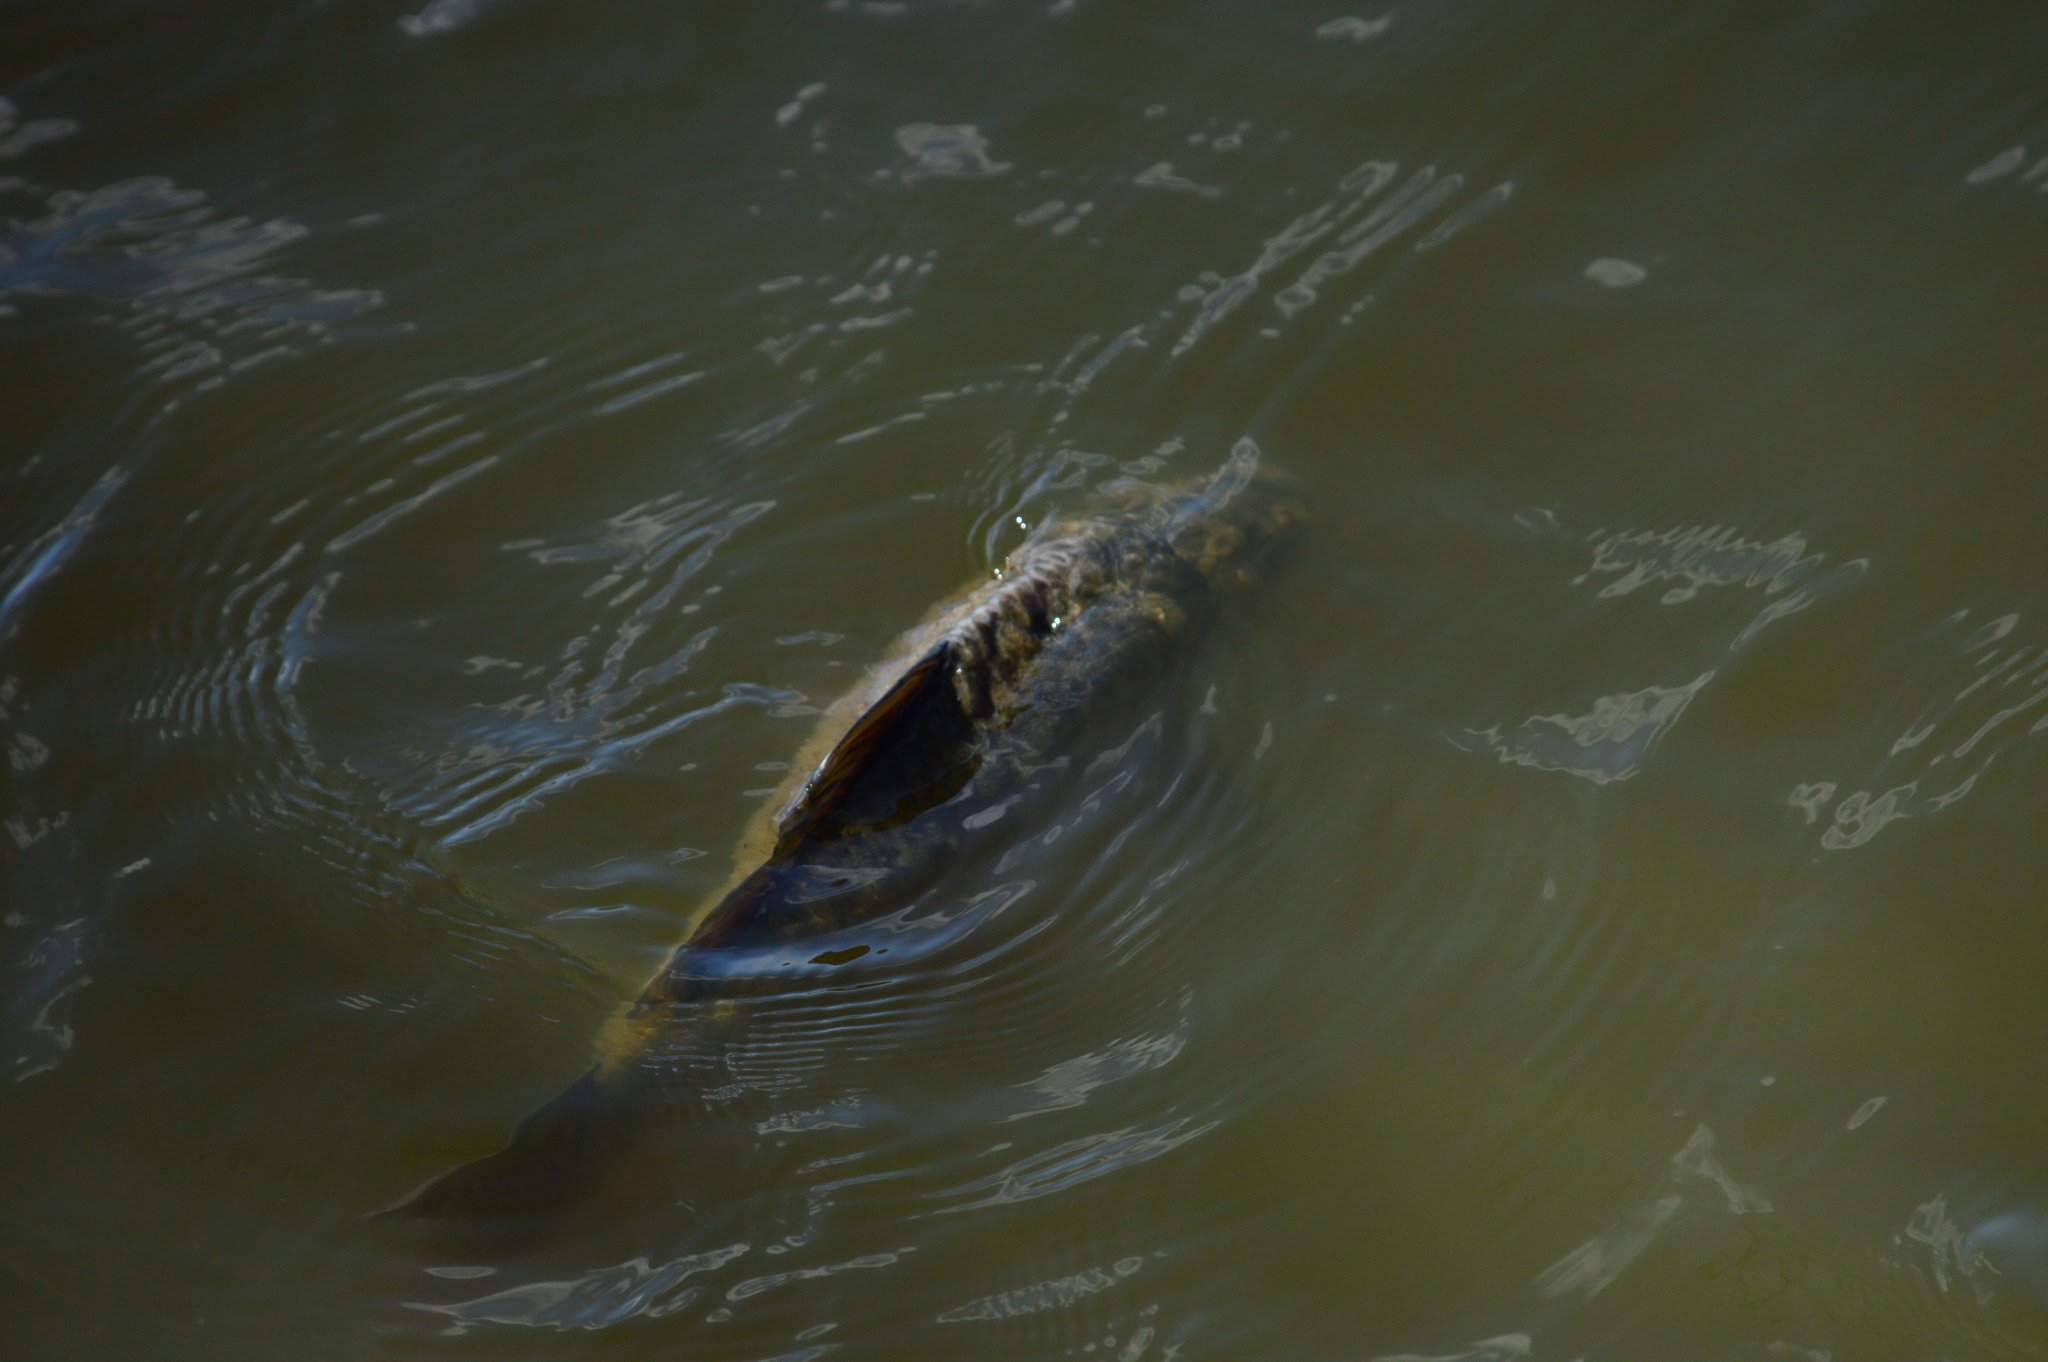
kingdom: Animalia
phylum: Chordata
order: Cypriniformes
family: Cyprinidae
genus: Cyprinus
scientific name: Cyprinus carpio
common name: Common carp
